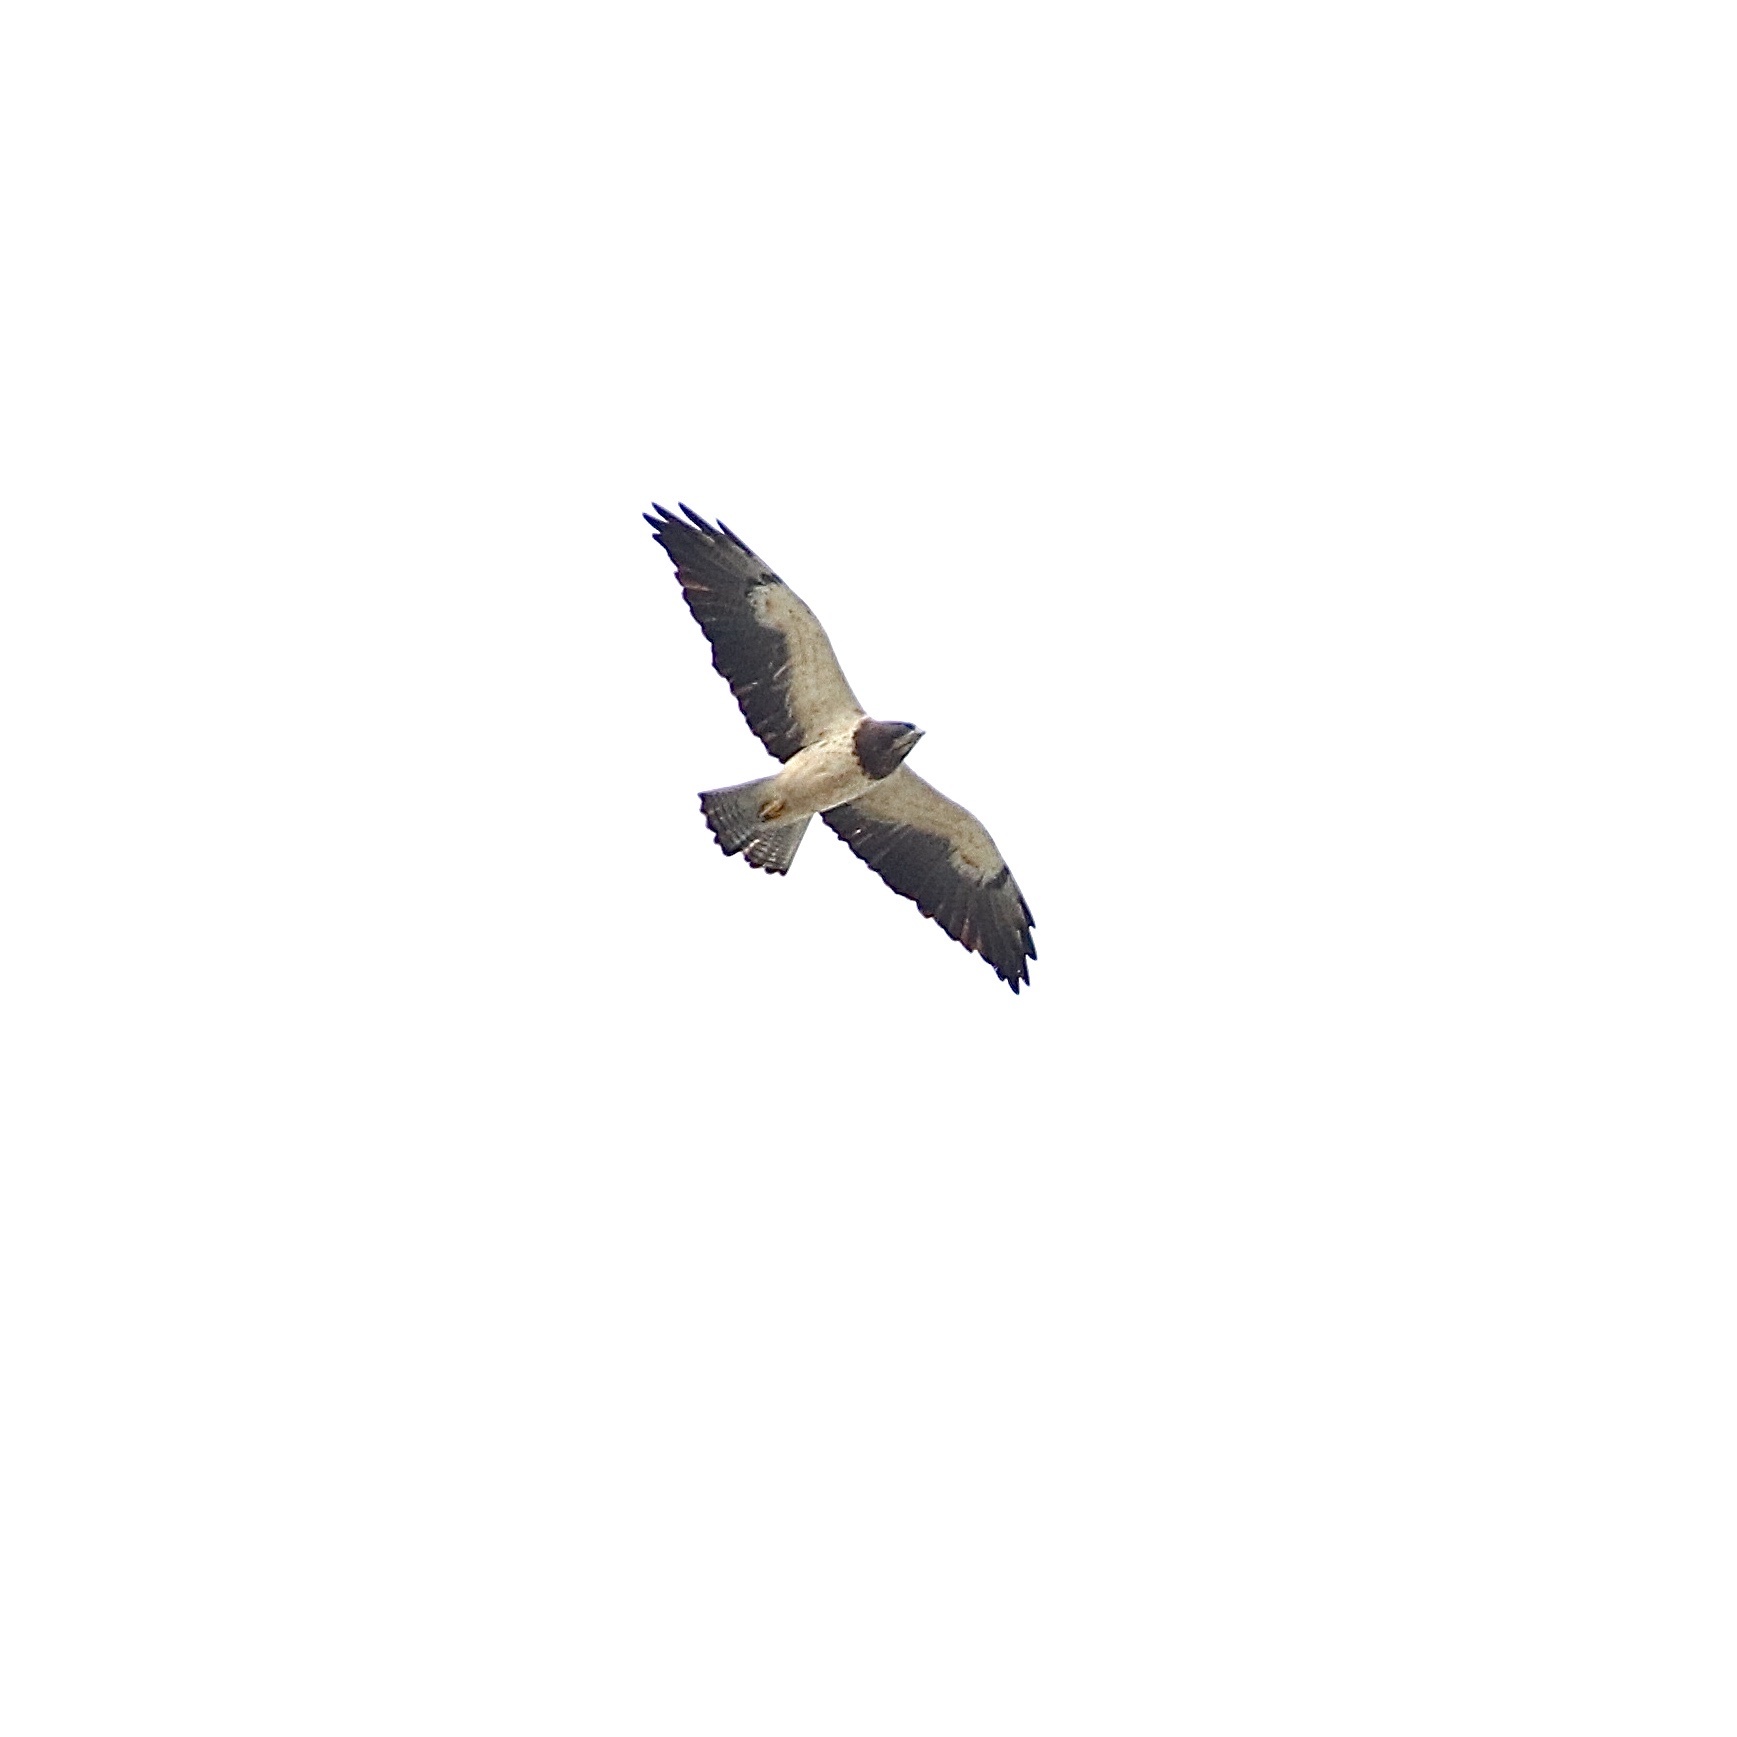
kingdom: Animalia
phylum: Chordata
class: Aves
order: Accipitriformes
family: Accipitridae
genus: Buteo
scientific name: Buteo swainsoni
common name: Swainson's hawk
